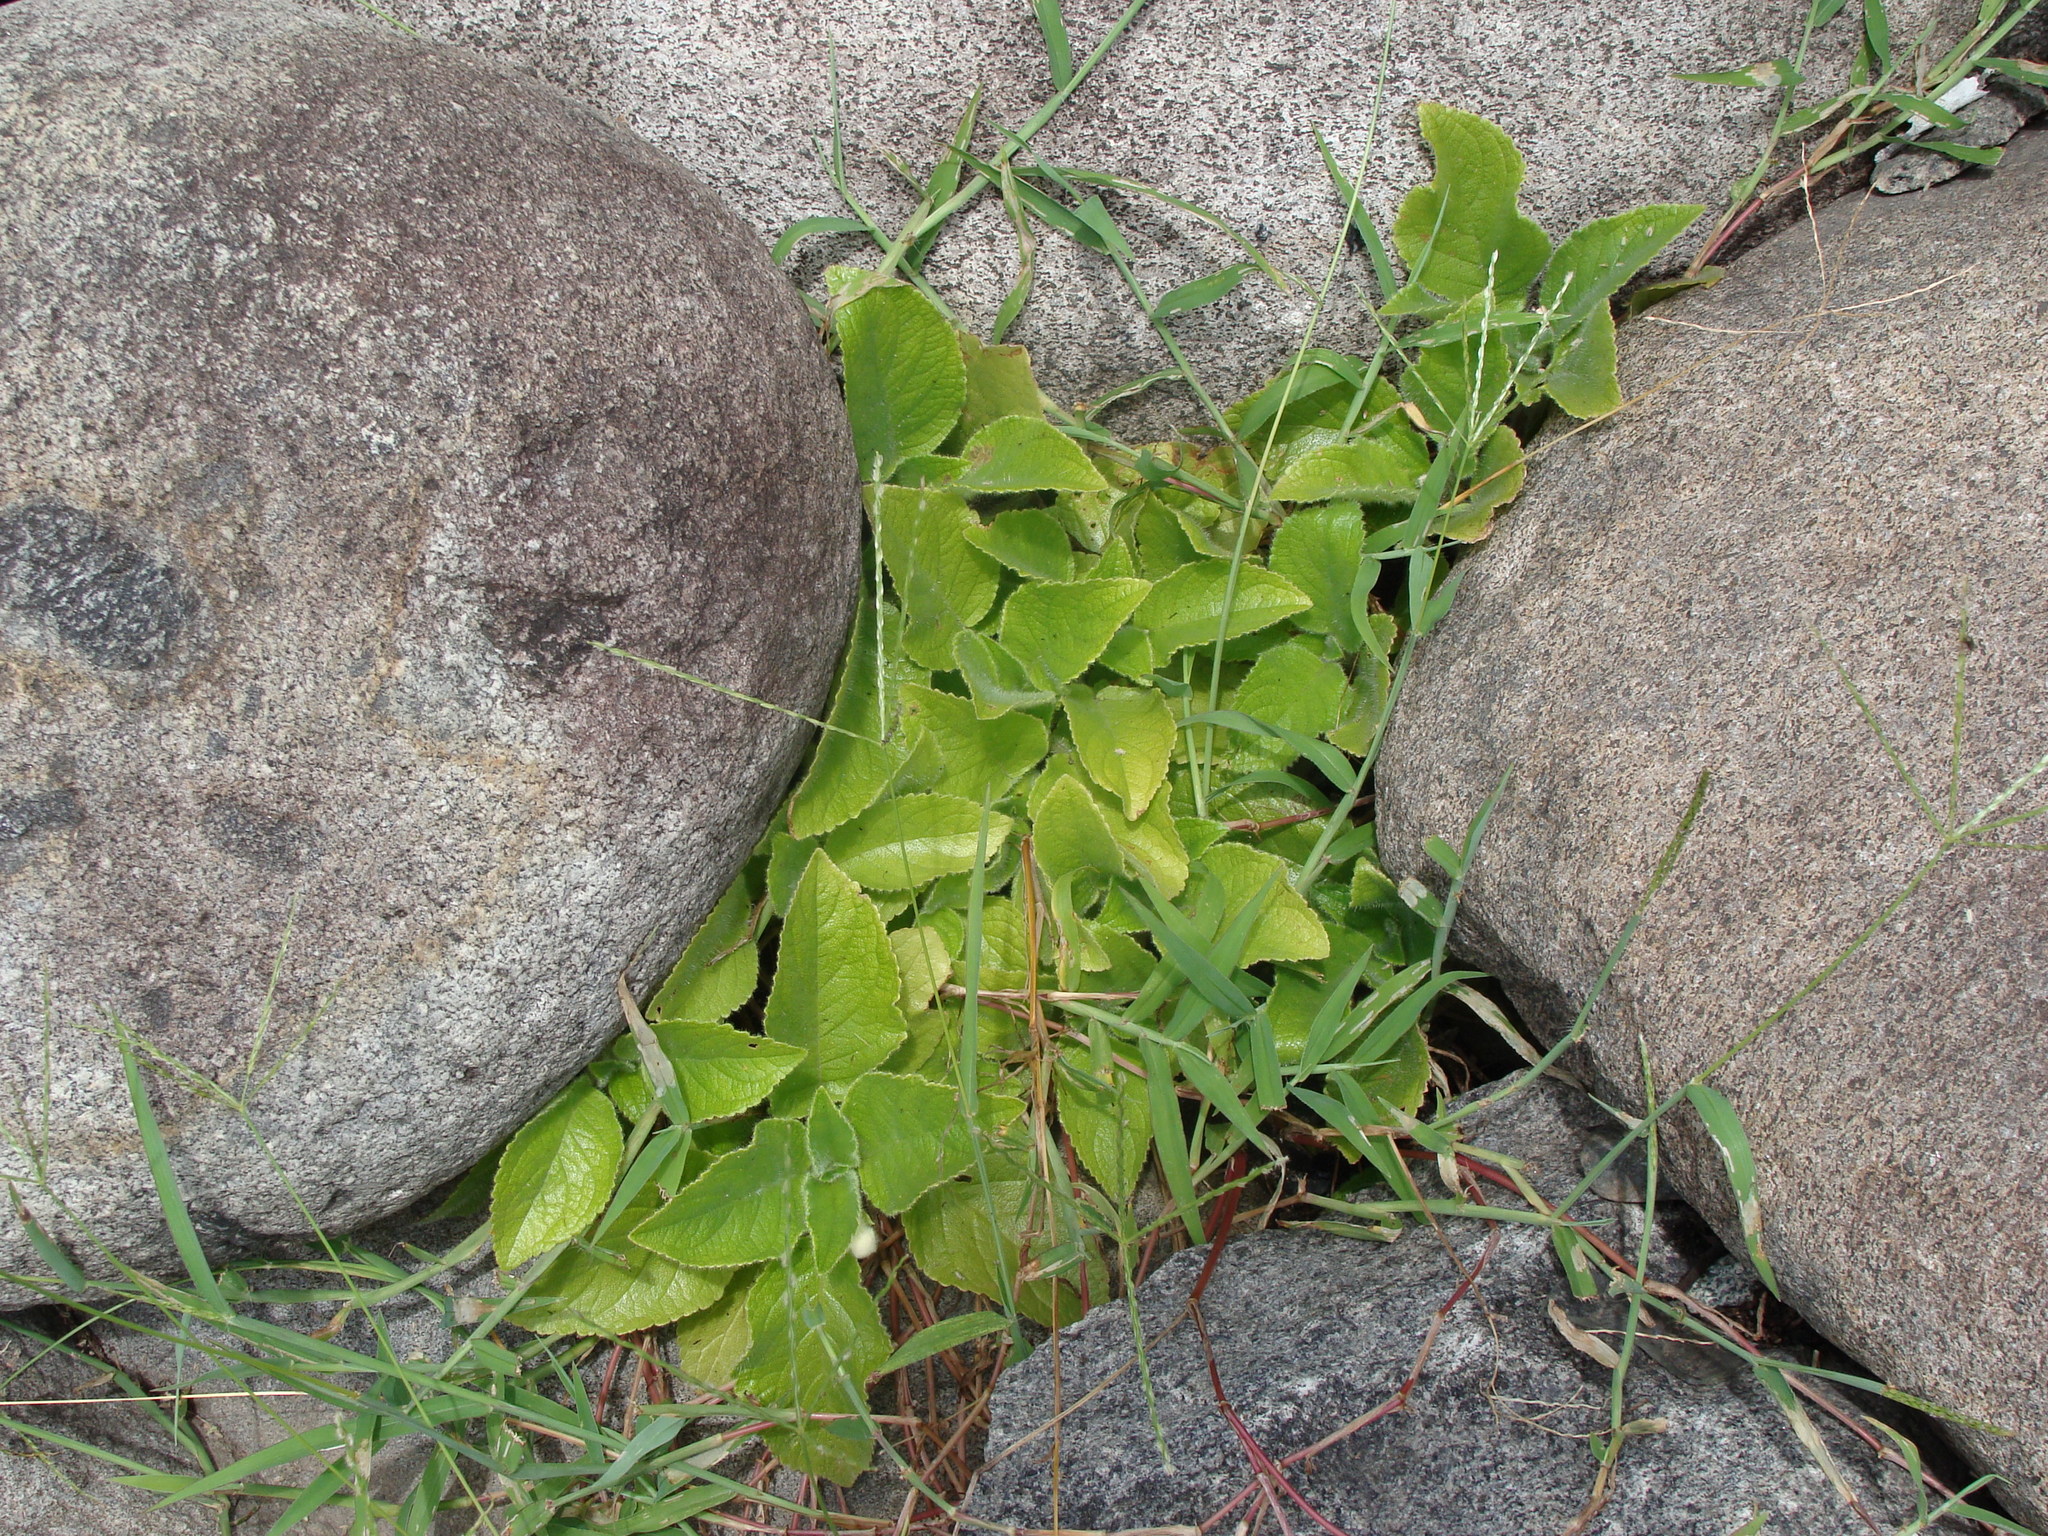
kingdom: Plantae
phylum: Tracheophyta
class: Magnoliopsida
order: Lamiales
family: Gesneriaceae
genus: Chrysothemis
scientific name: Chrysothemis panamensis
